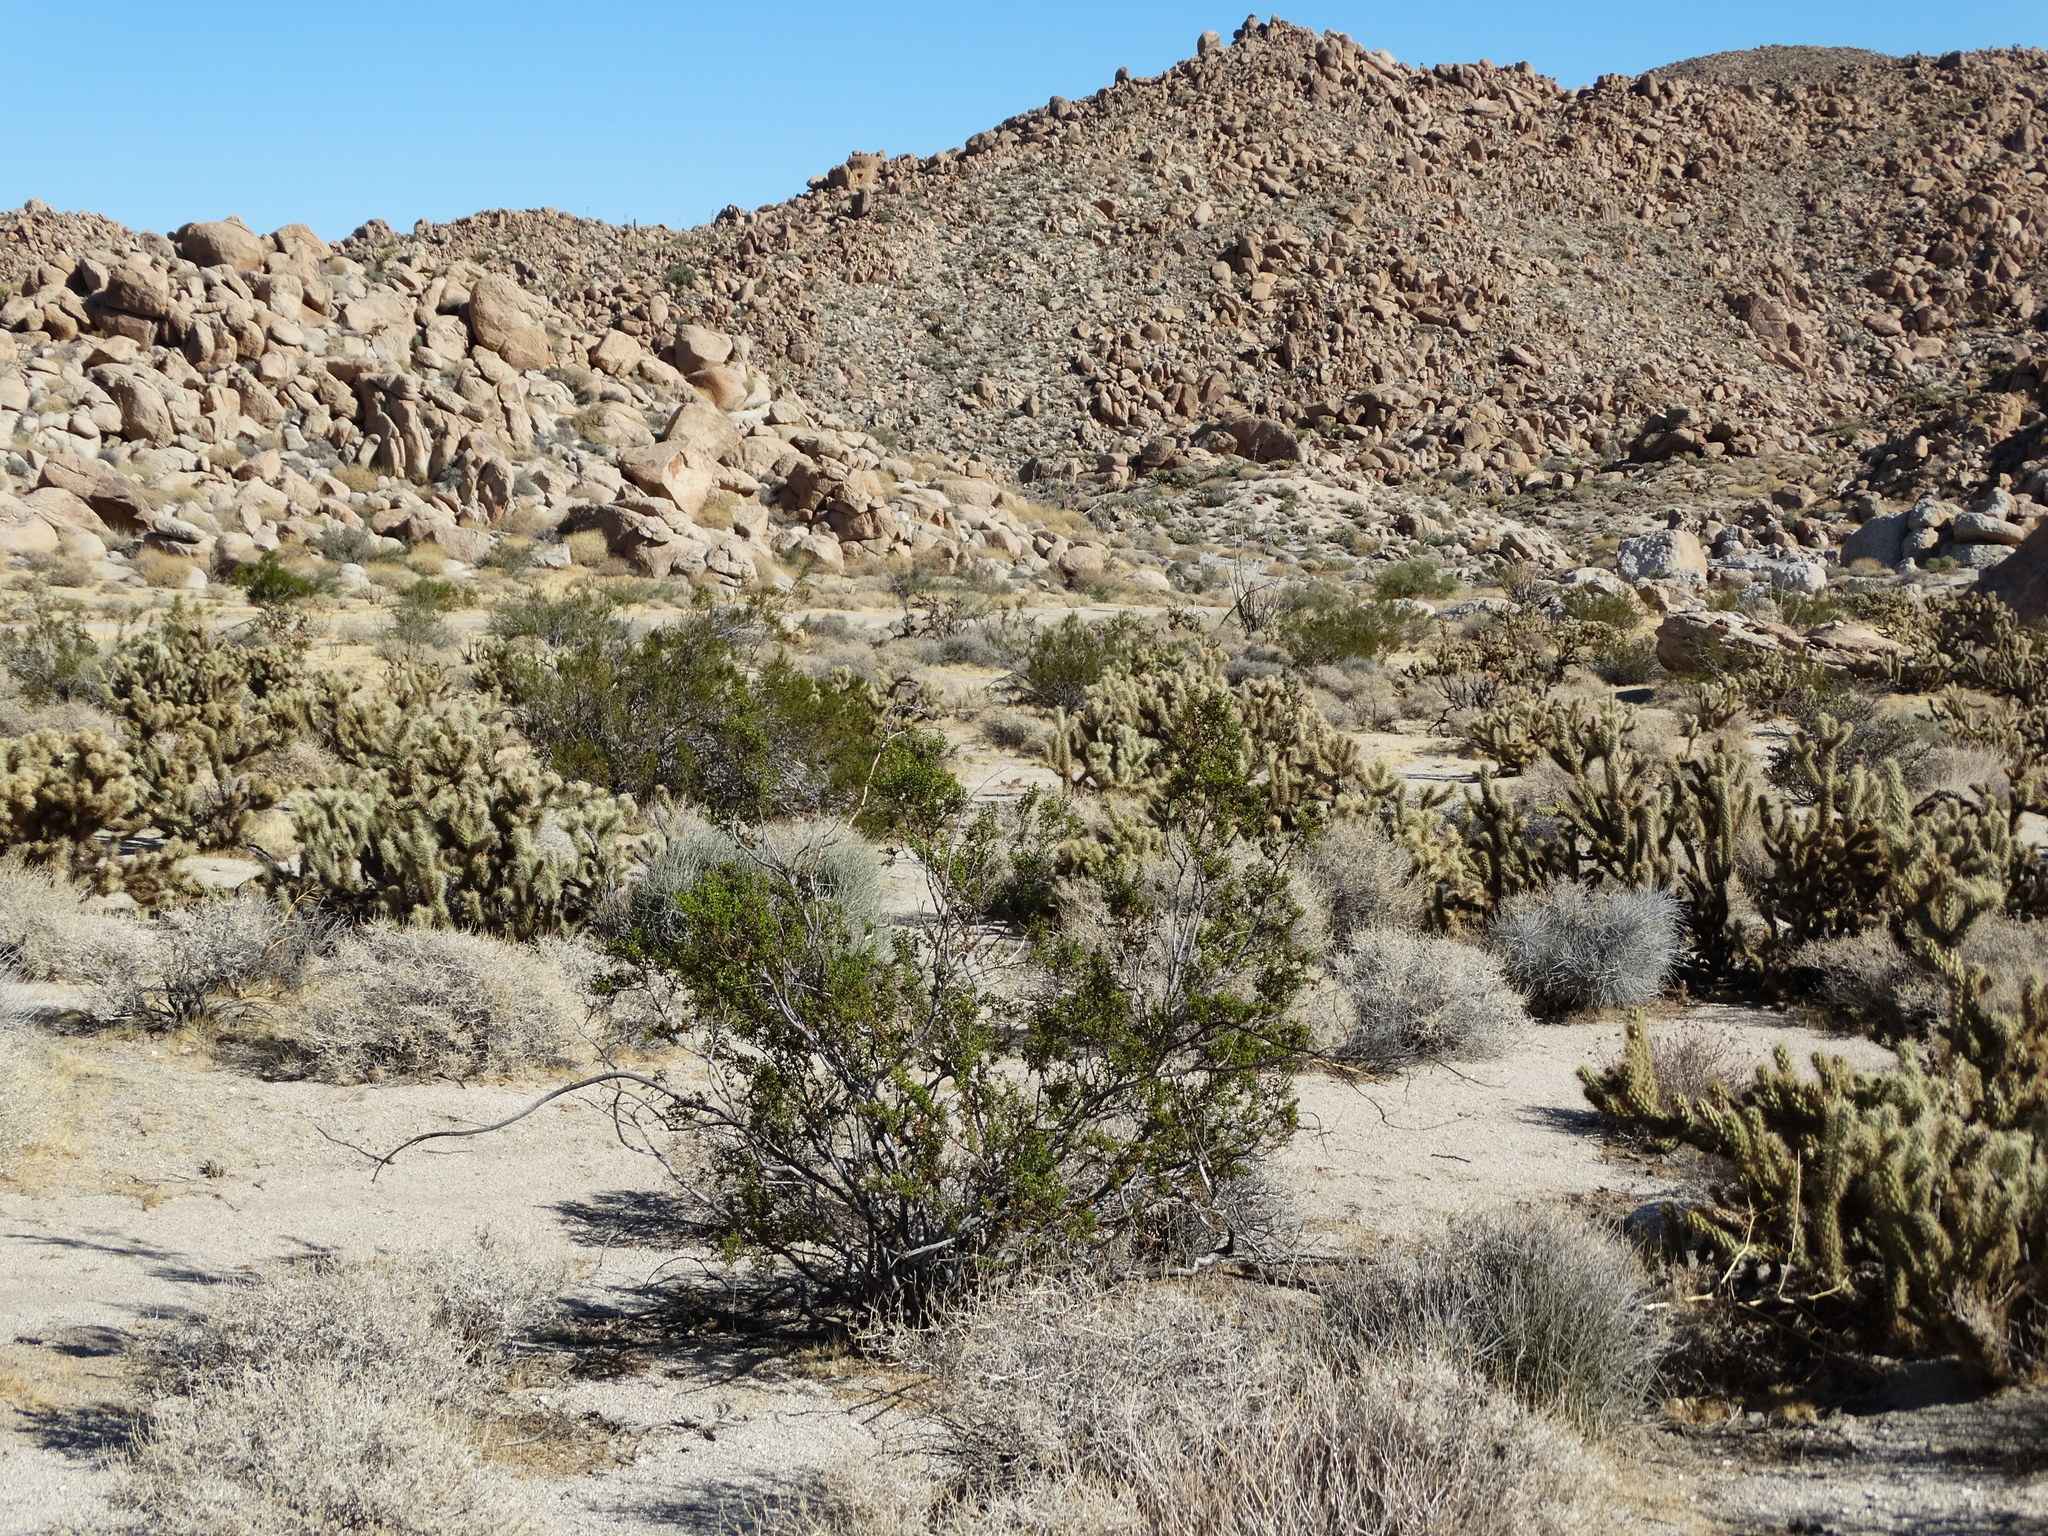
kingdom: Plantae
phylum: Tracheophyta
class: Magnoliopsida
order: Zygophyllales
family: Zygophyllaceae
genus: Larrea
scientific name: Larrea tridentata
